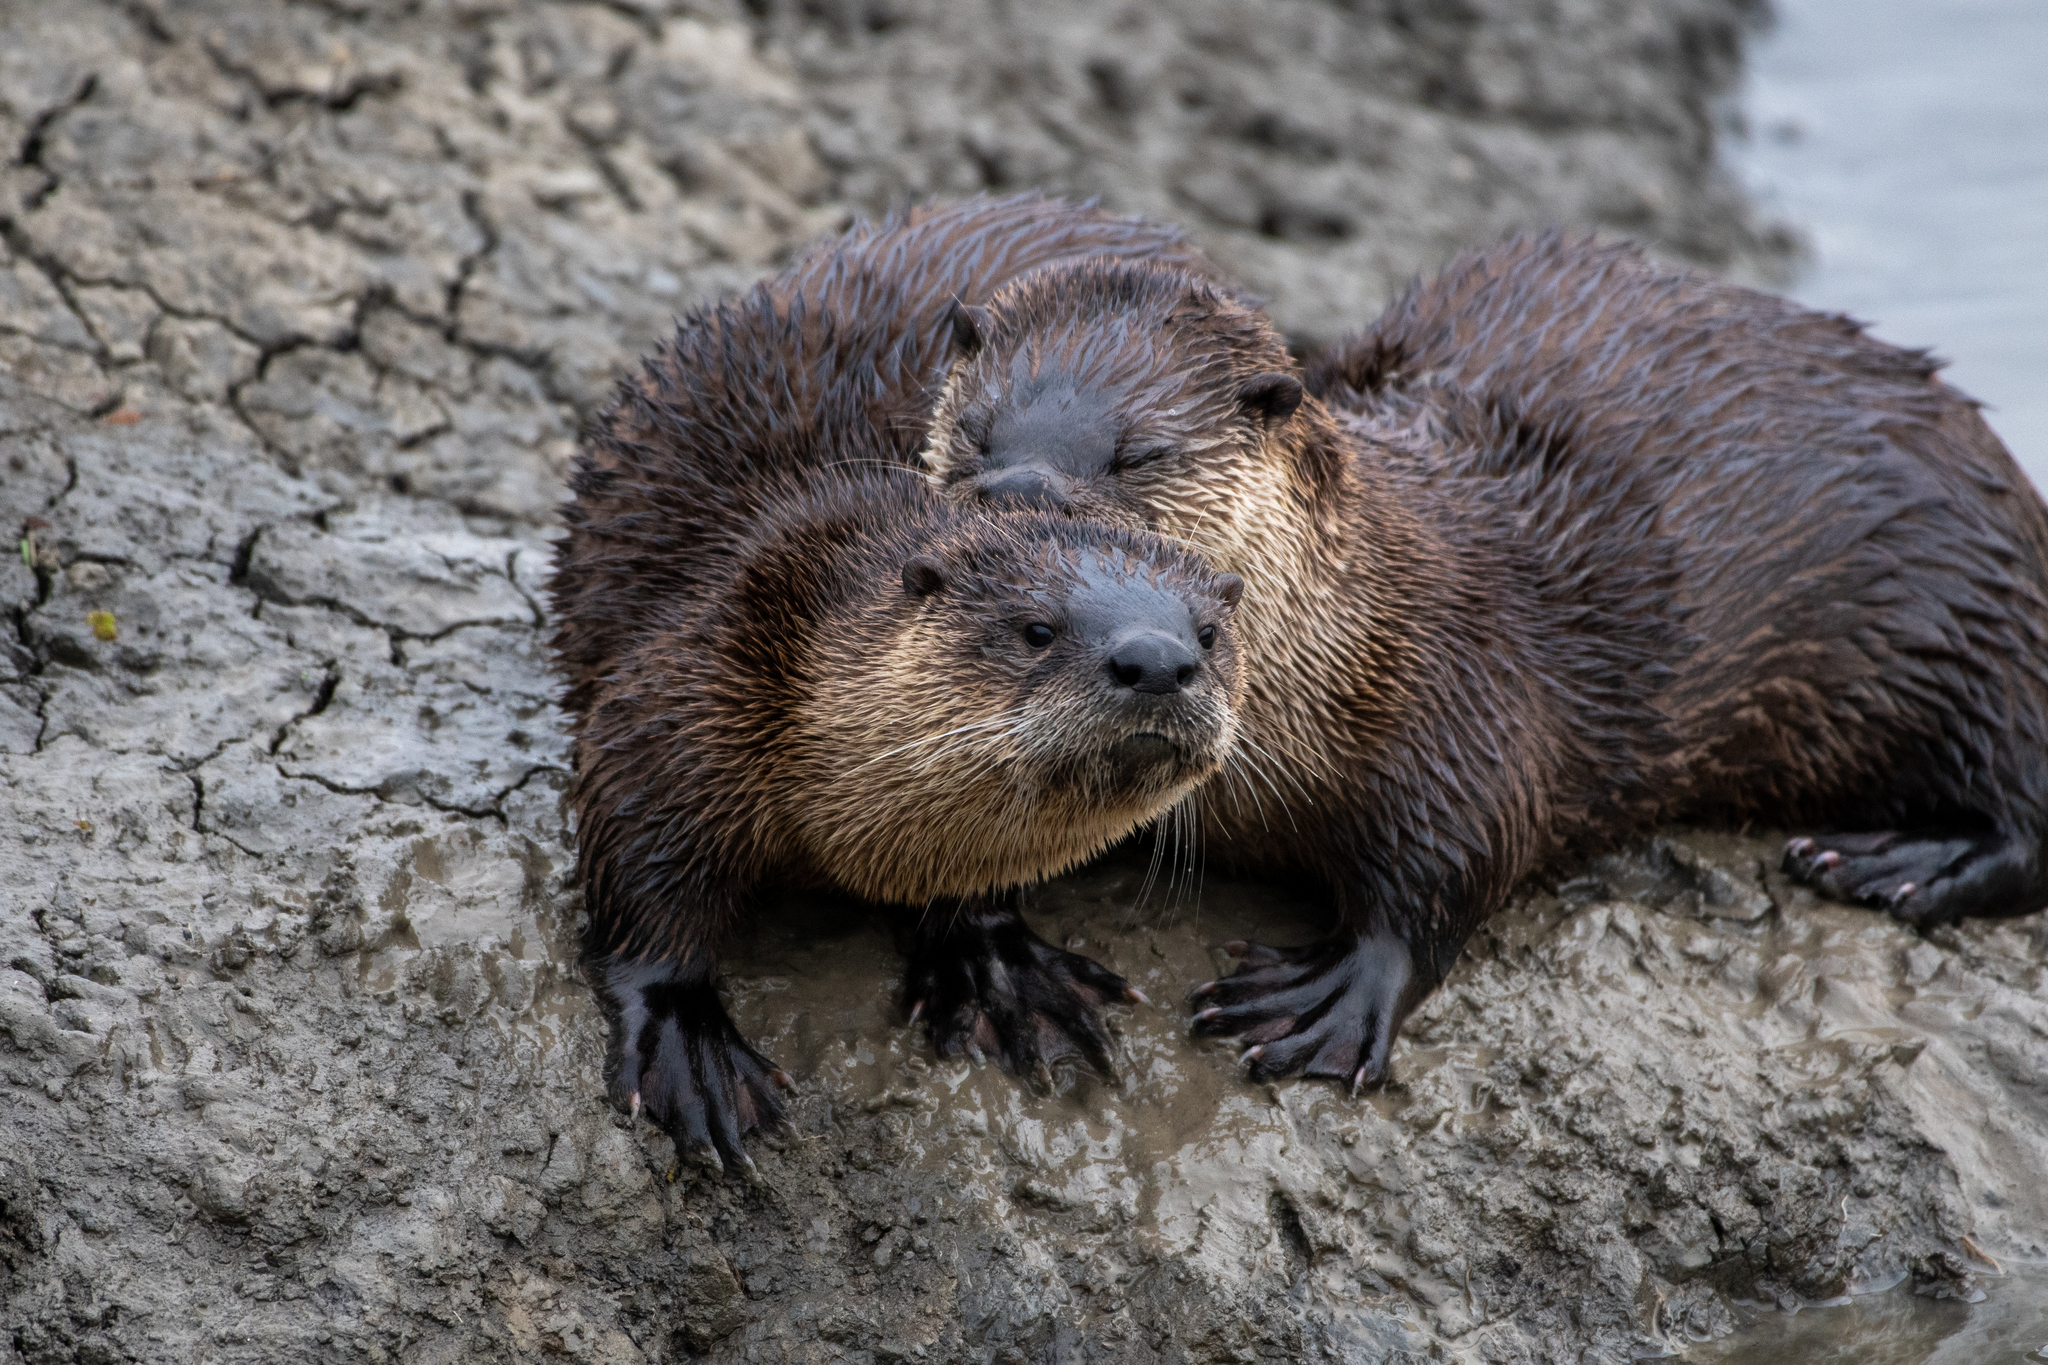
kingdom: Animalia
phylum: Chordata
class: Mammalia
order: Carnivora
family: Mustelidae
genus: Lontra
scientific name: Lontra canadensis
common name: North american river otter
